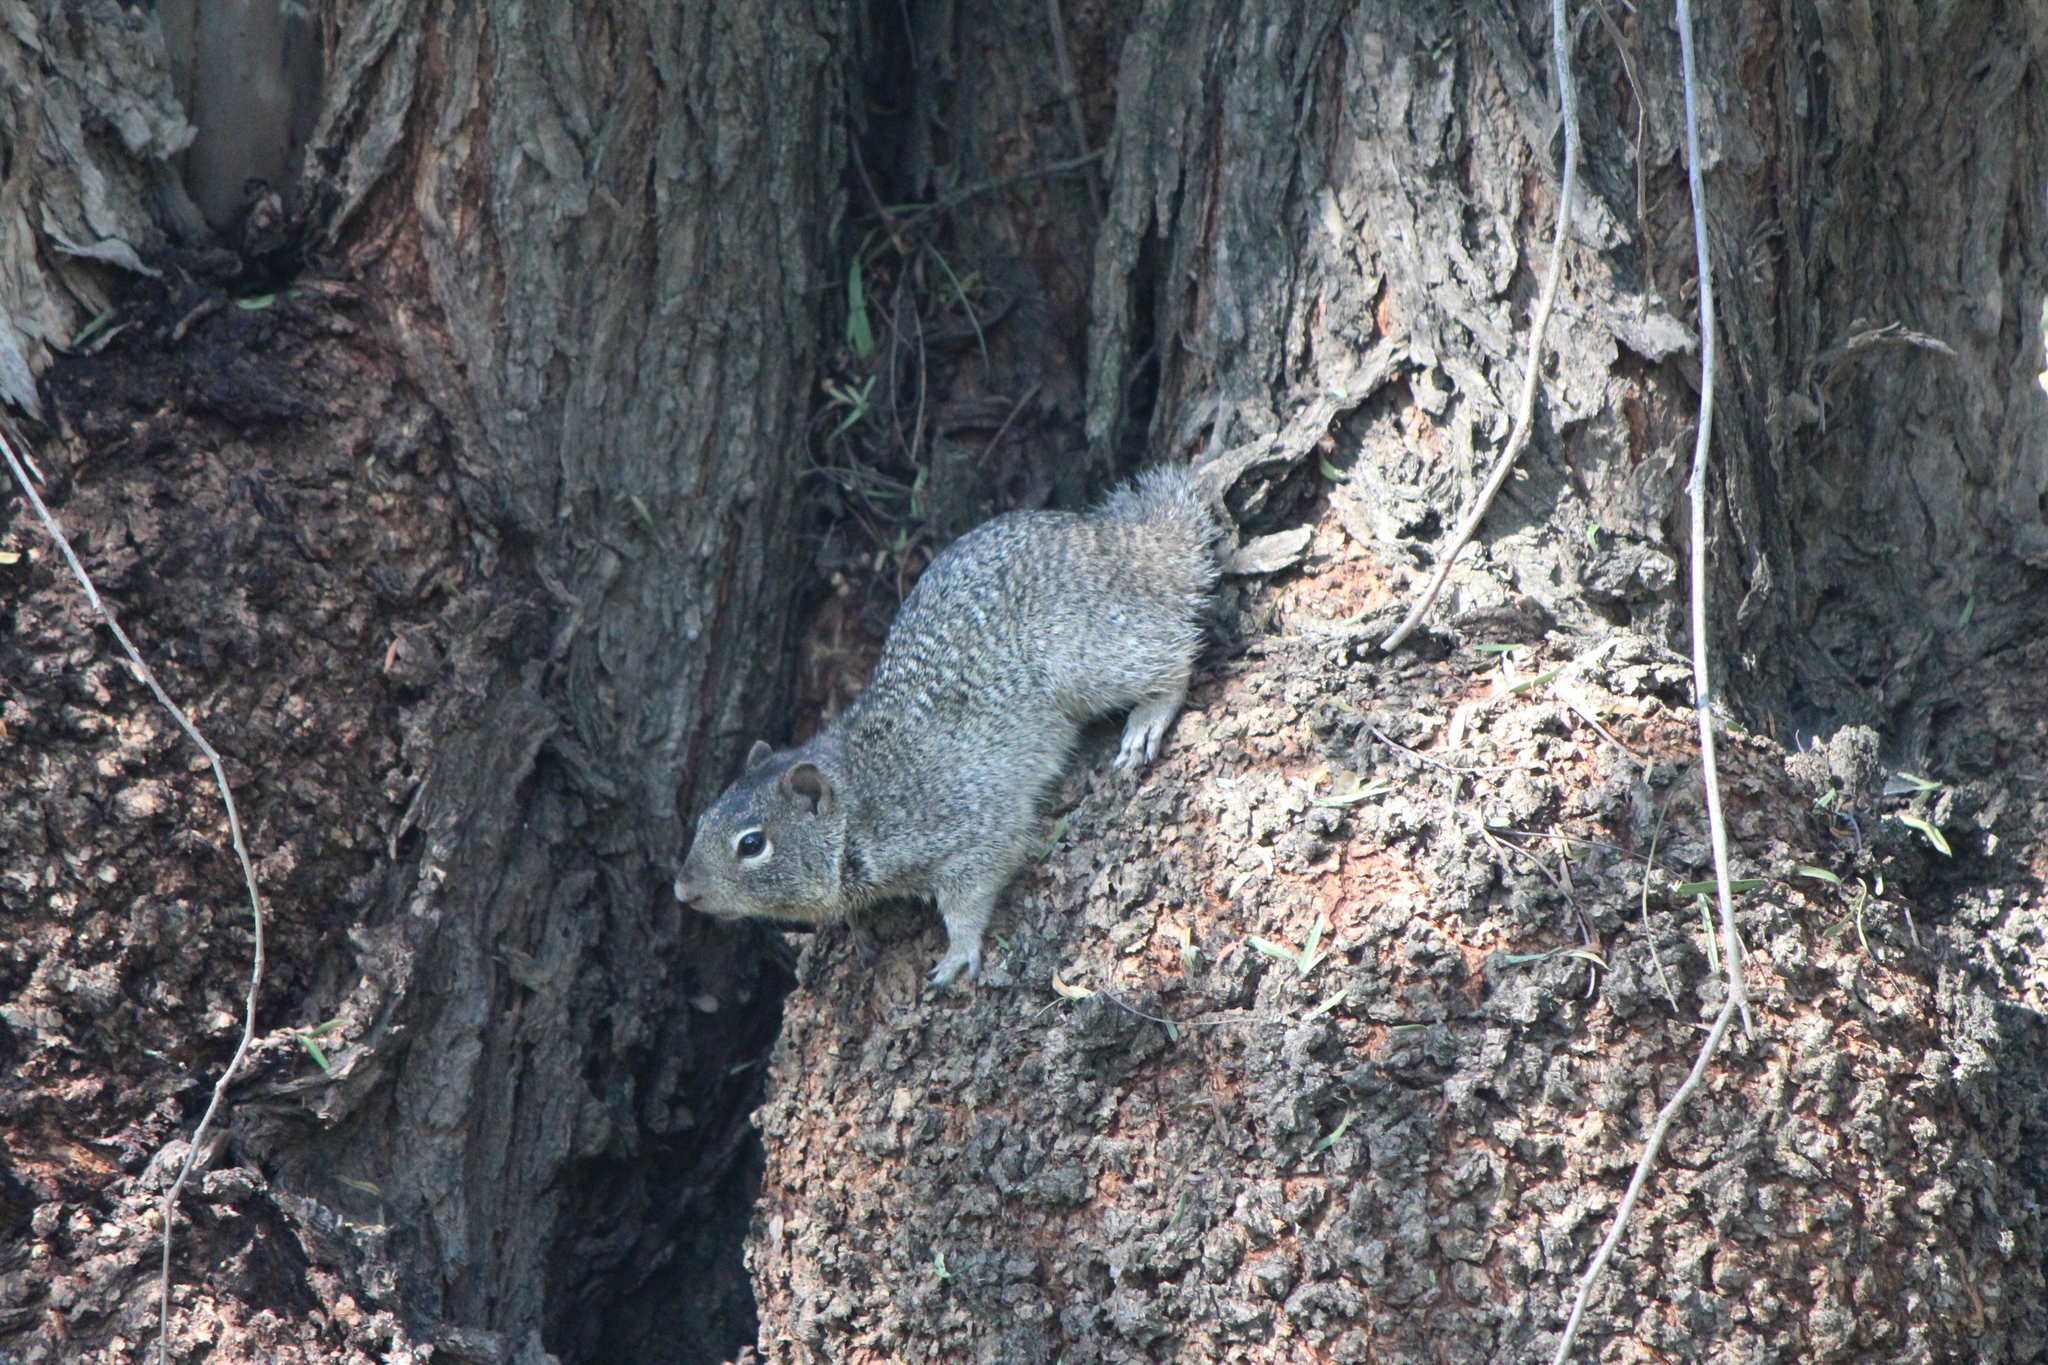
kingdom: Animalia
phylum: Chordata
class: Mammalia
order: Rodentia
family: Sciuridae
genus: Otospermophilus
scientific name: Otospermophilus variegatus
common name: Rock squirrel
